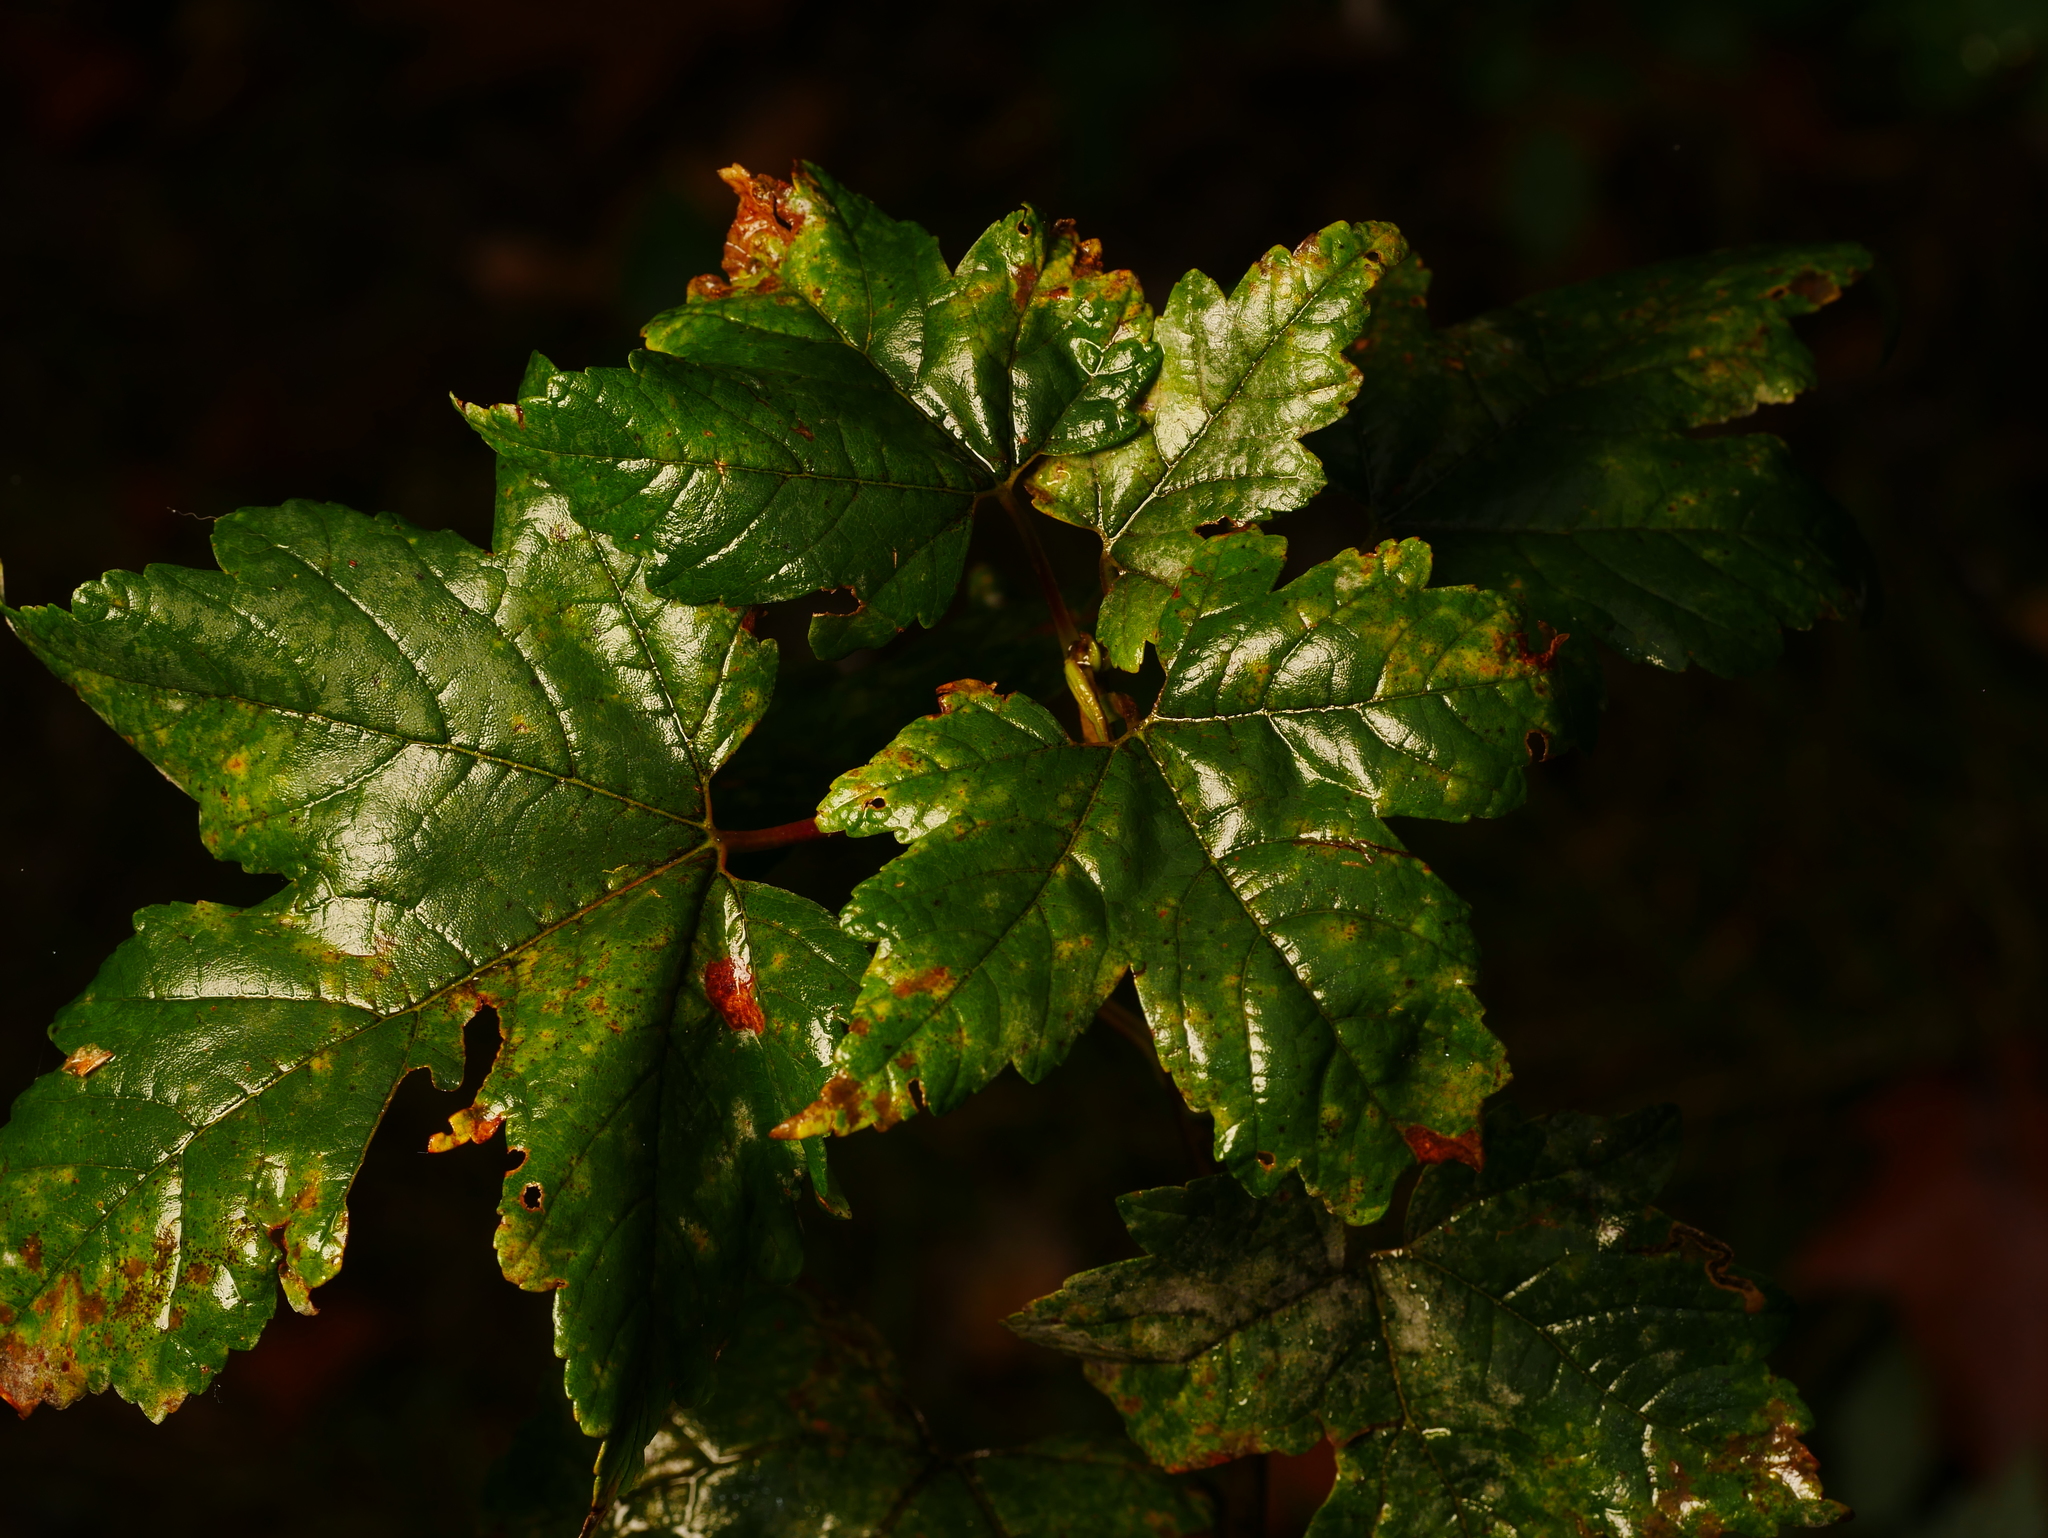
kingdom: Plantae
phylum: Tracheophyta
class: Magnoliopsida
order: Sapindales
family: Sapindaceae
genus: Acer
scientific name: Acer pseudoplatanus
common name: Sycamore
